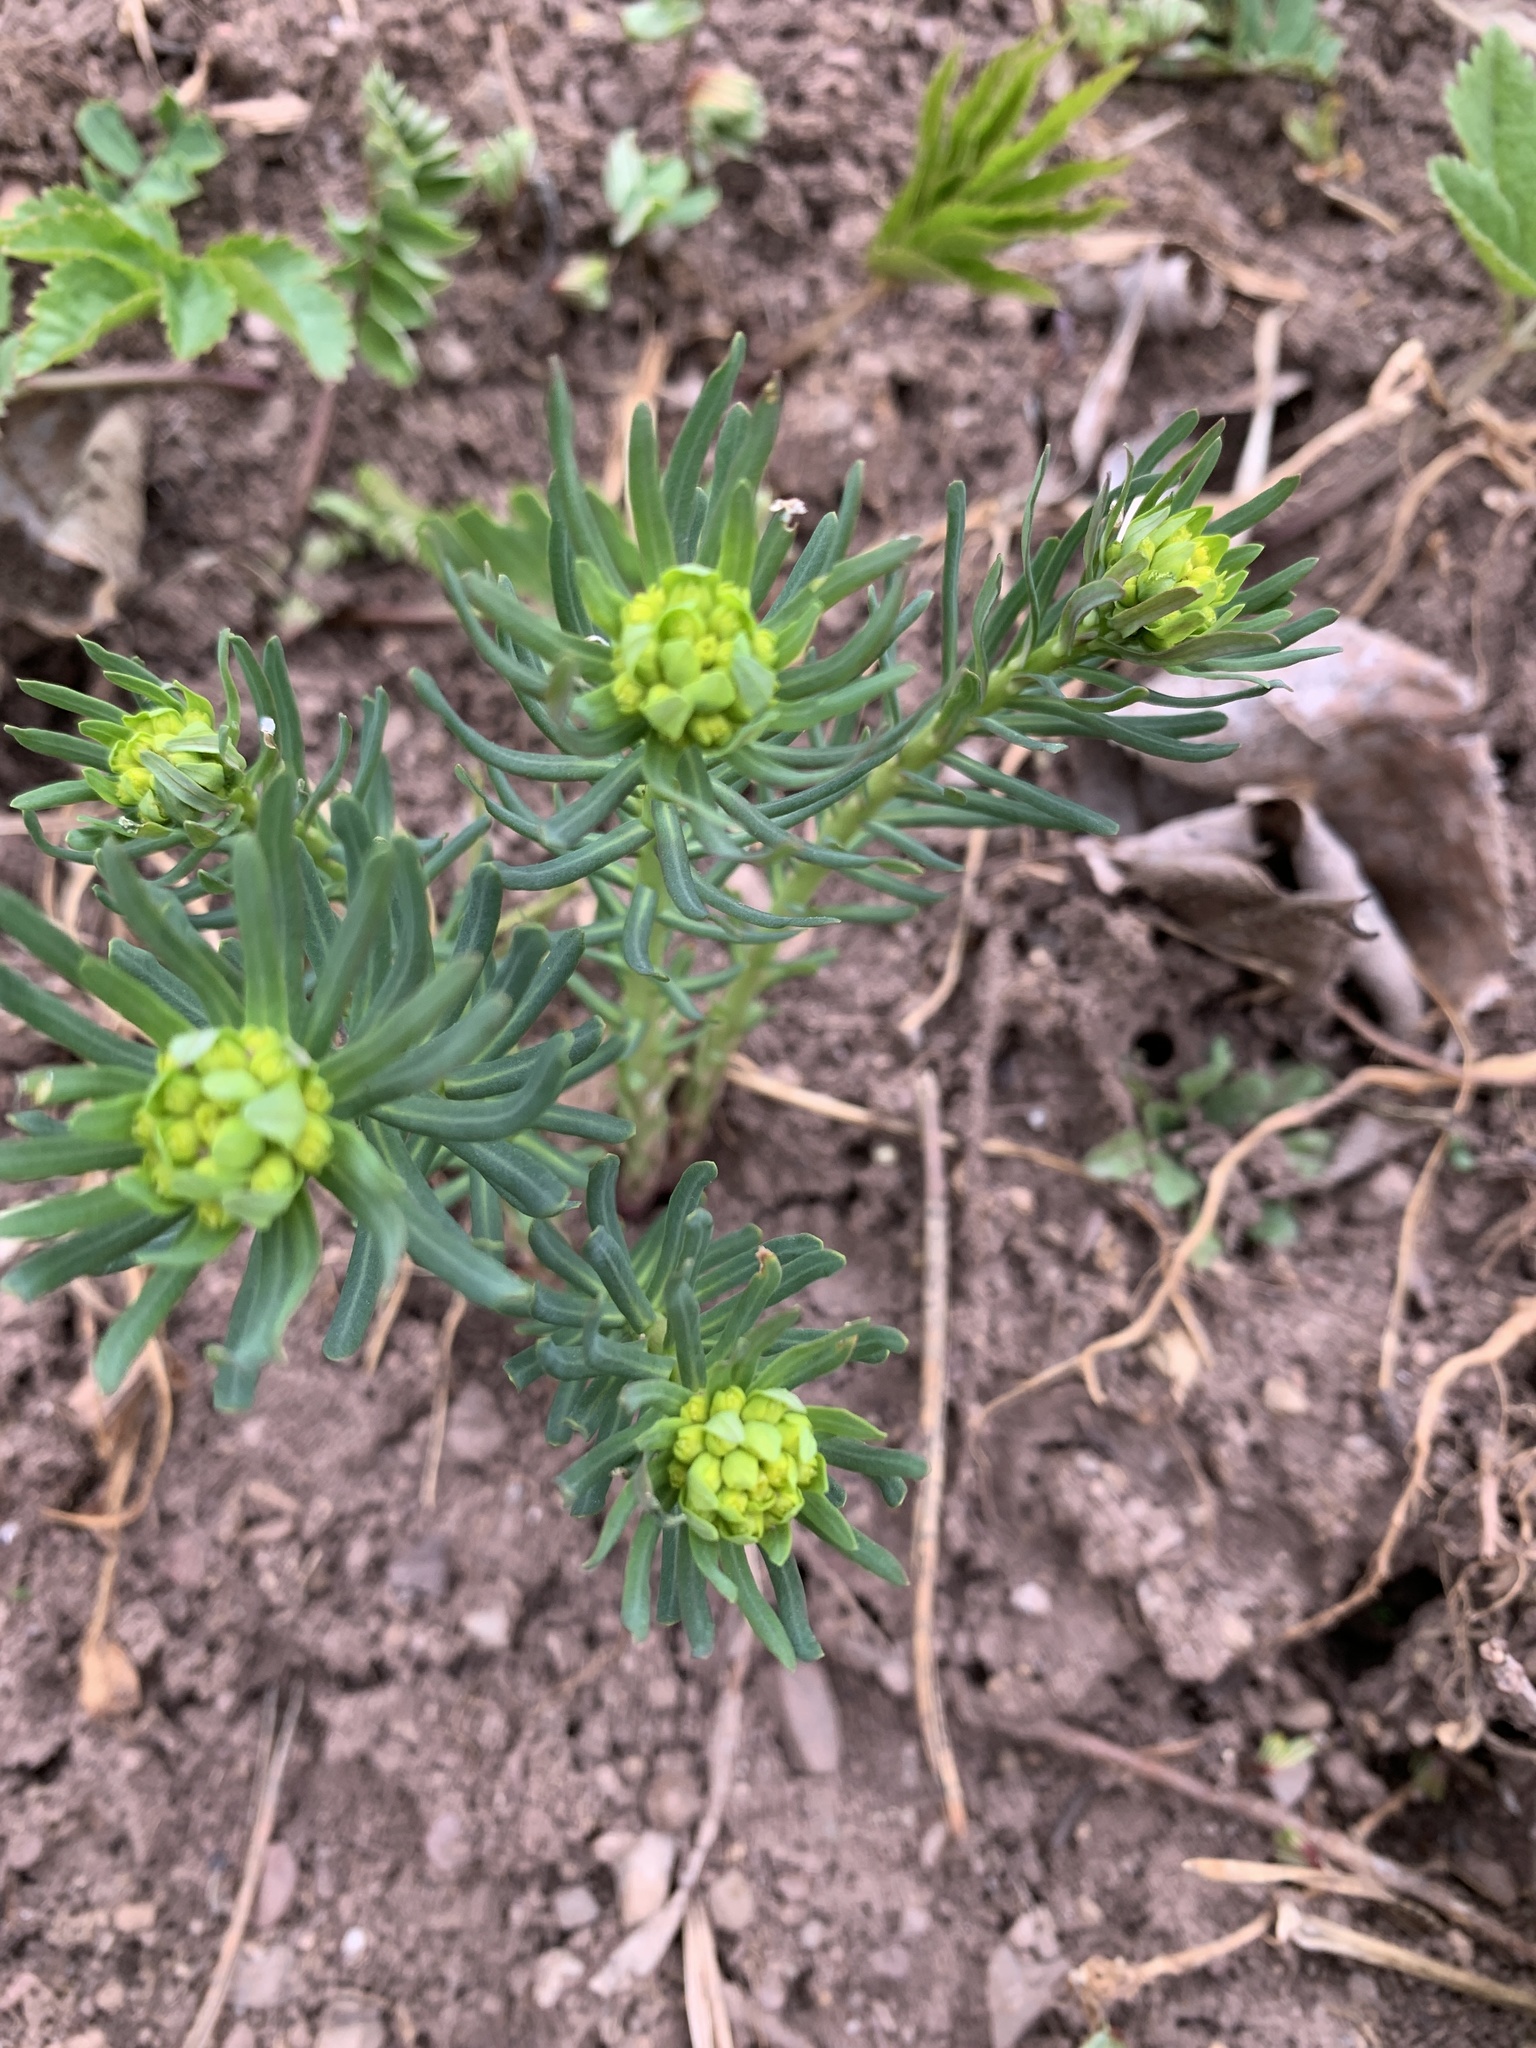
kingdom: Plantae
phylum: Tracheophyta
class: Magnoliopsida
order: Malpighiales
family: Euphorbiaceae
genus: Euphorbia
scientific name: Euphorbia cyparissias
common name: Cypress spurge
